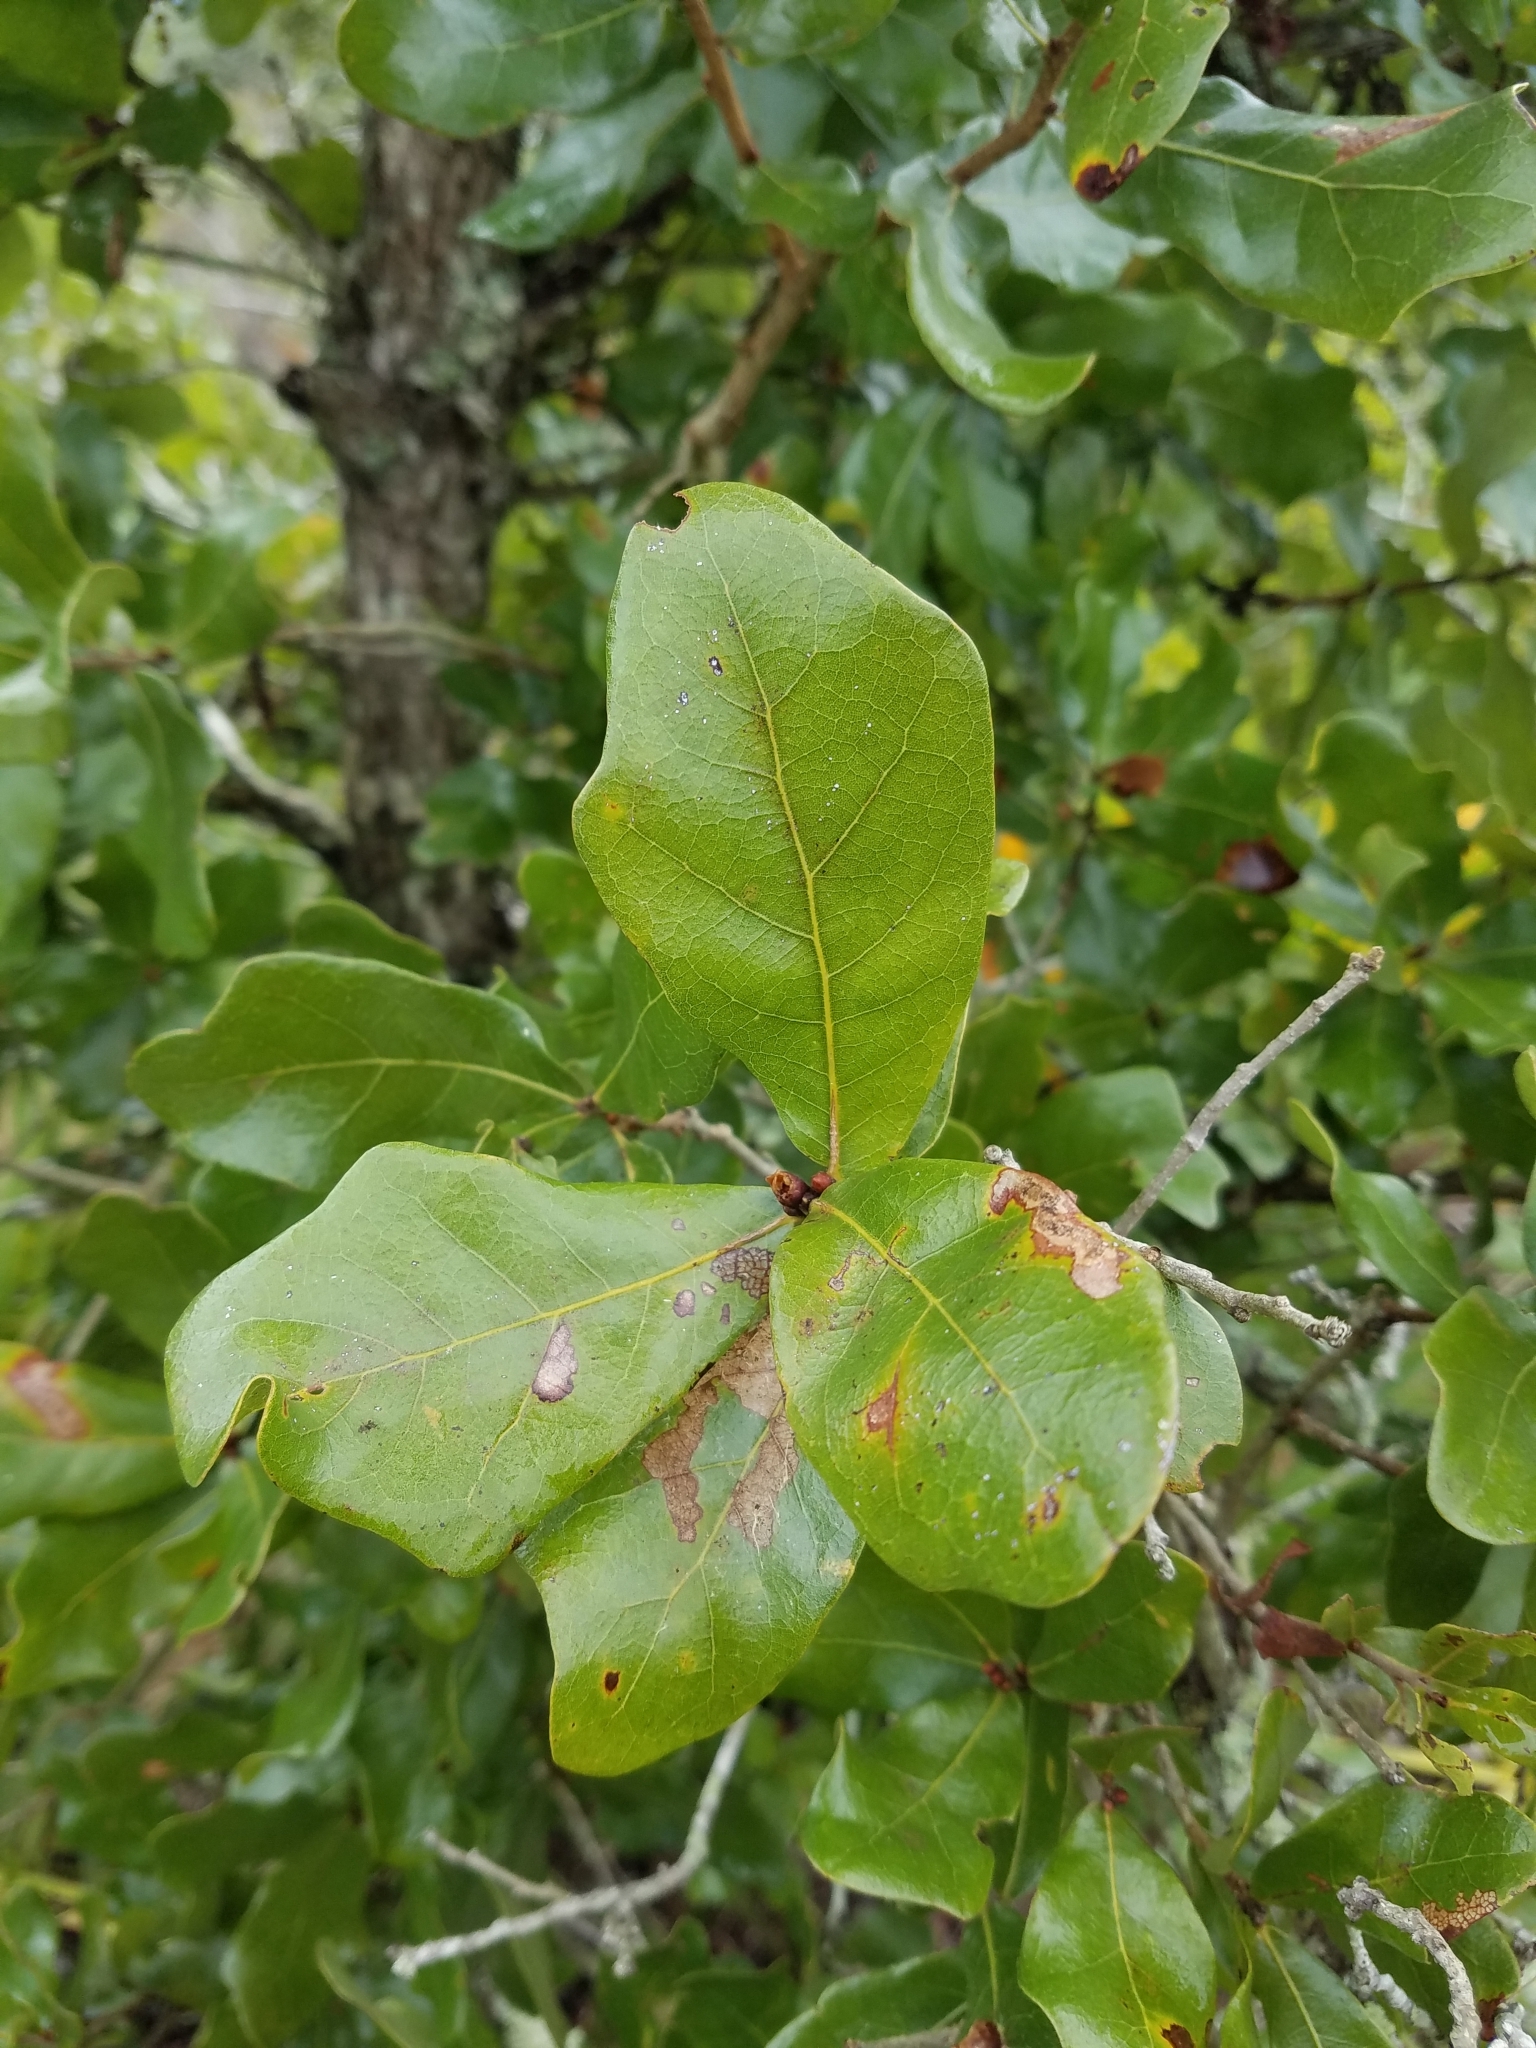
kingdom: Plantae
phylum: Tracheophyta
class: Magnoliopsida
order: Fagales
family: Fagaceae
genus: Quercus
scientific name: Quercus chapmanii
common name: Chapman oak
